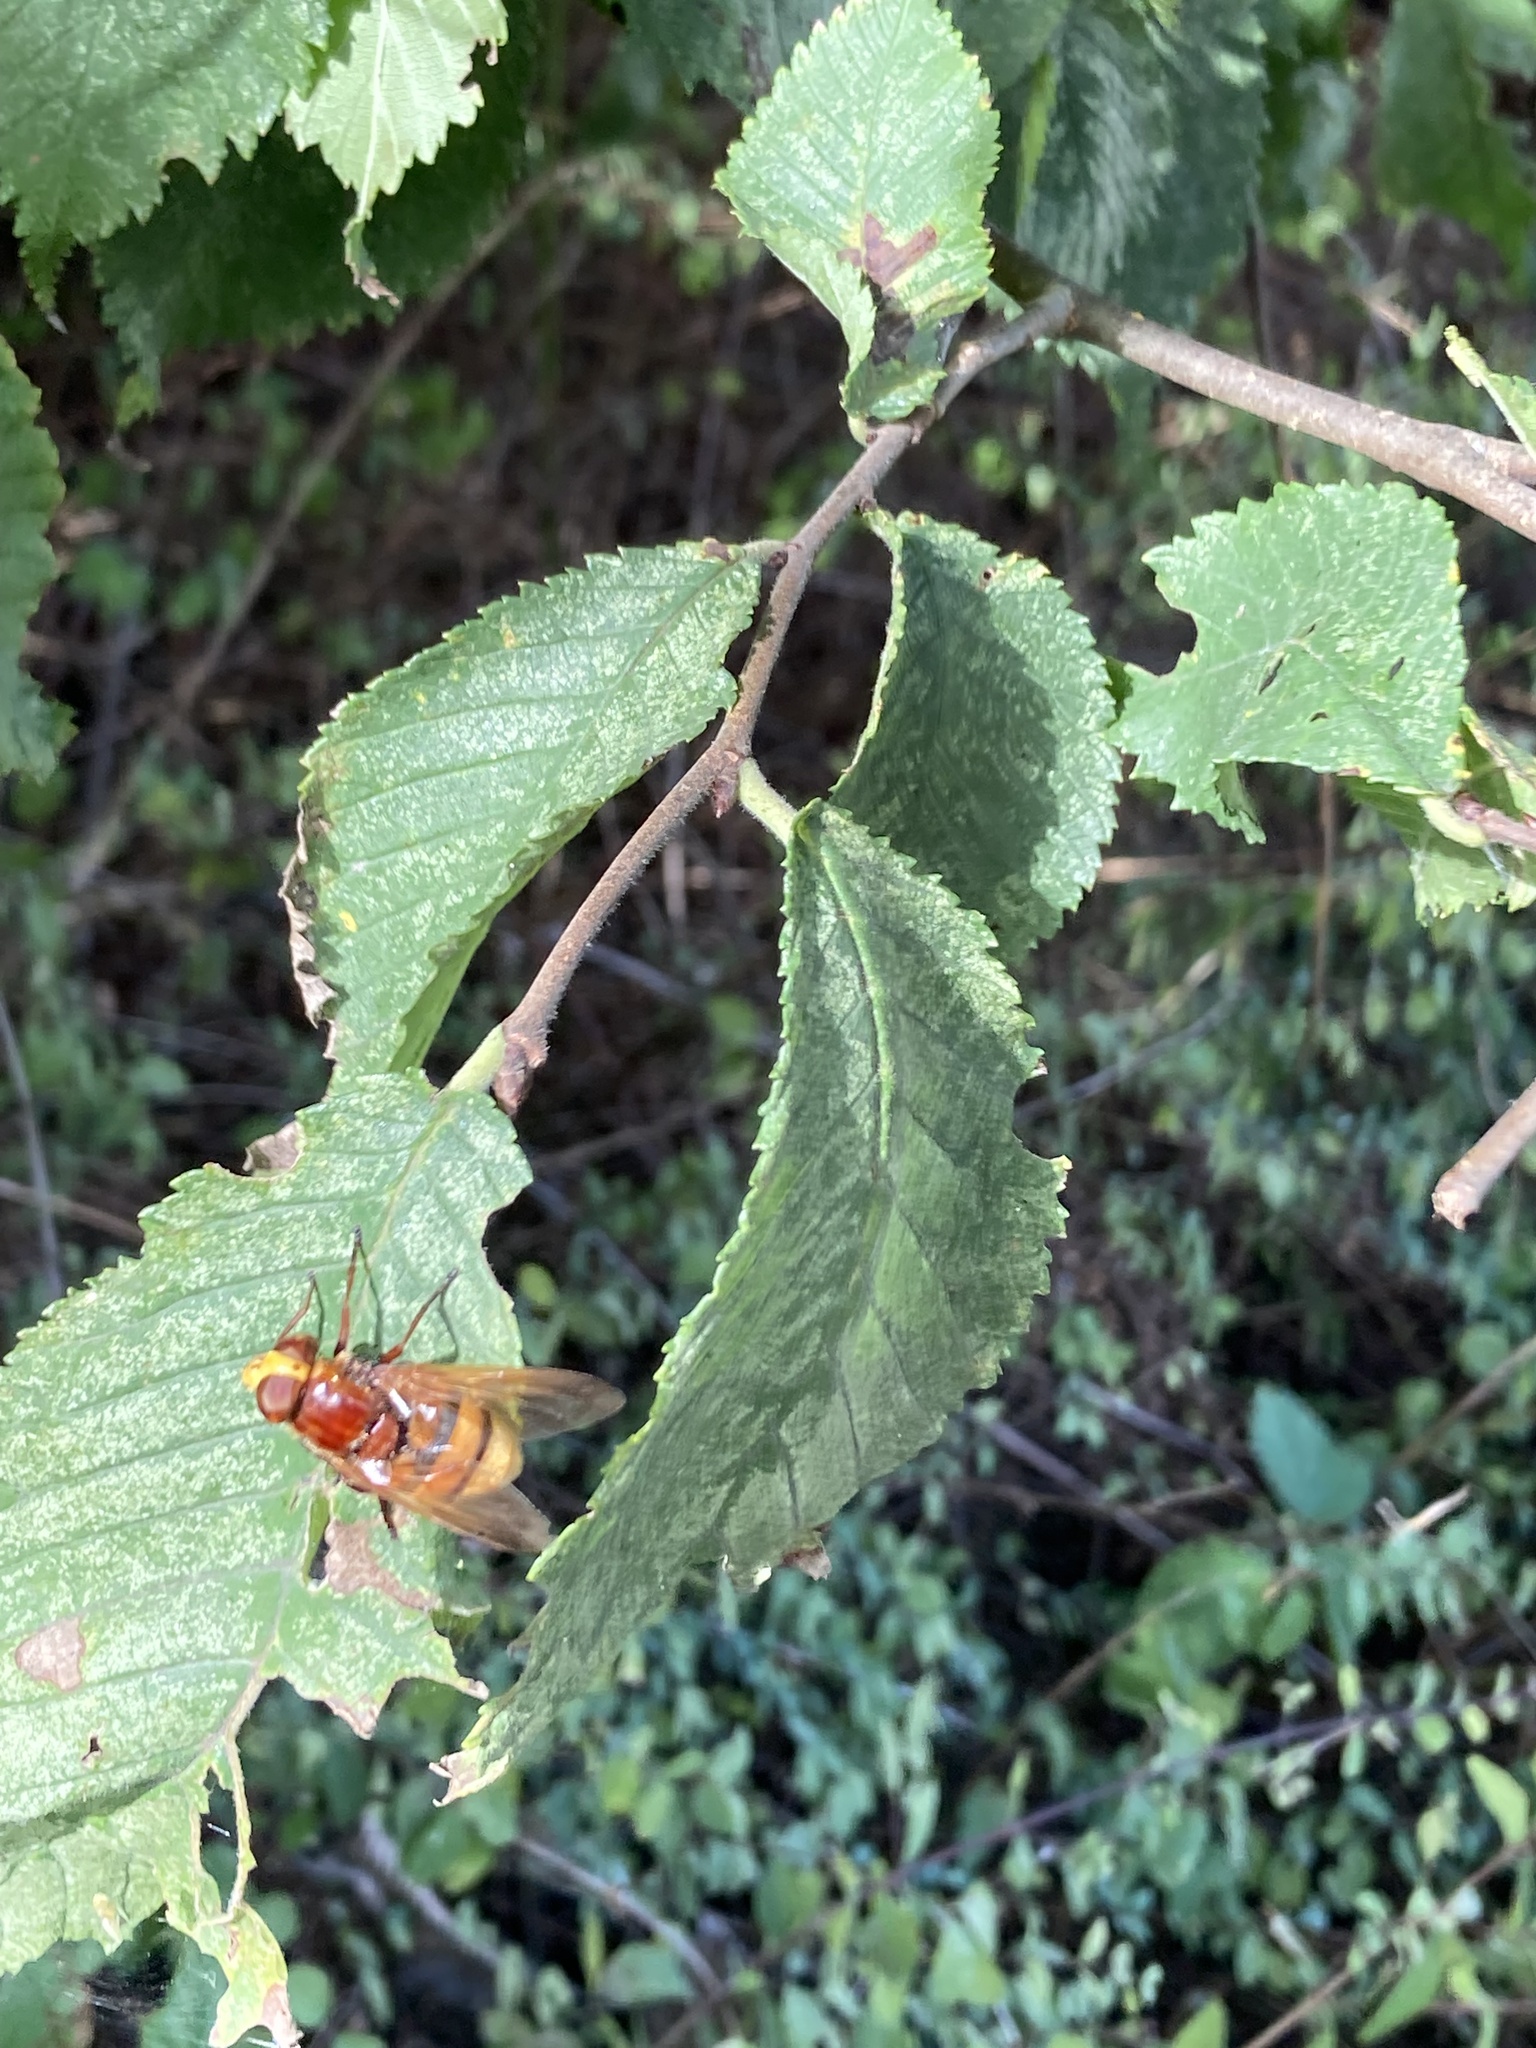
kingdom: Animalia
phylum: Arthropoda
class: Insecta
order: Diptera
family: Syrphidae
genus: Volucella
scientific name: Volucella zonaria
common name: Hornet hoverfly
